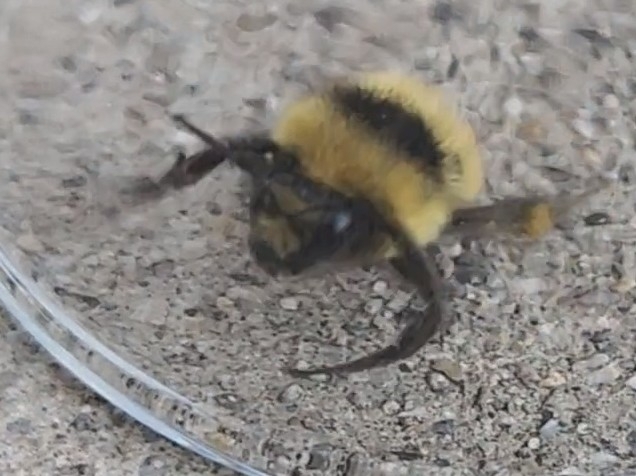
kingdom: Animalia
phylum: Arthropoda
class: Insecta
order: Hymenoptera
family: Apidae
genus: Bombus
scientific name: Bombus huntii
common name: Hunt bumble bee
